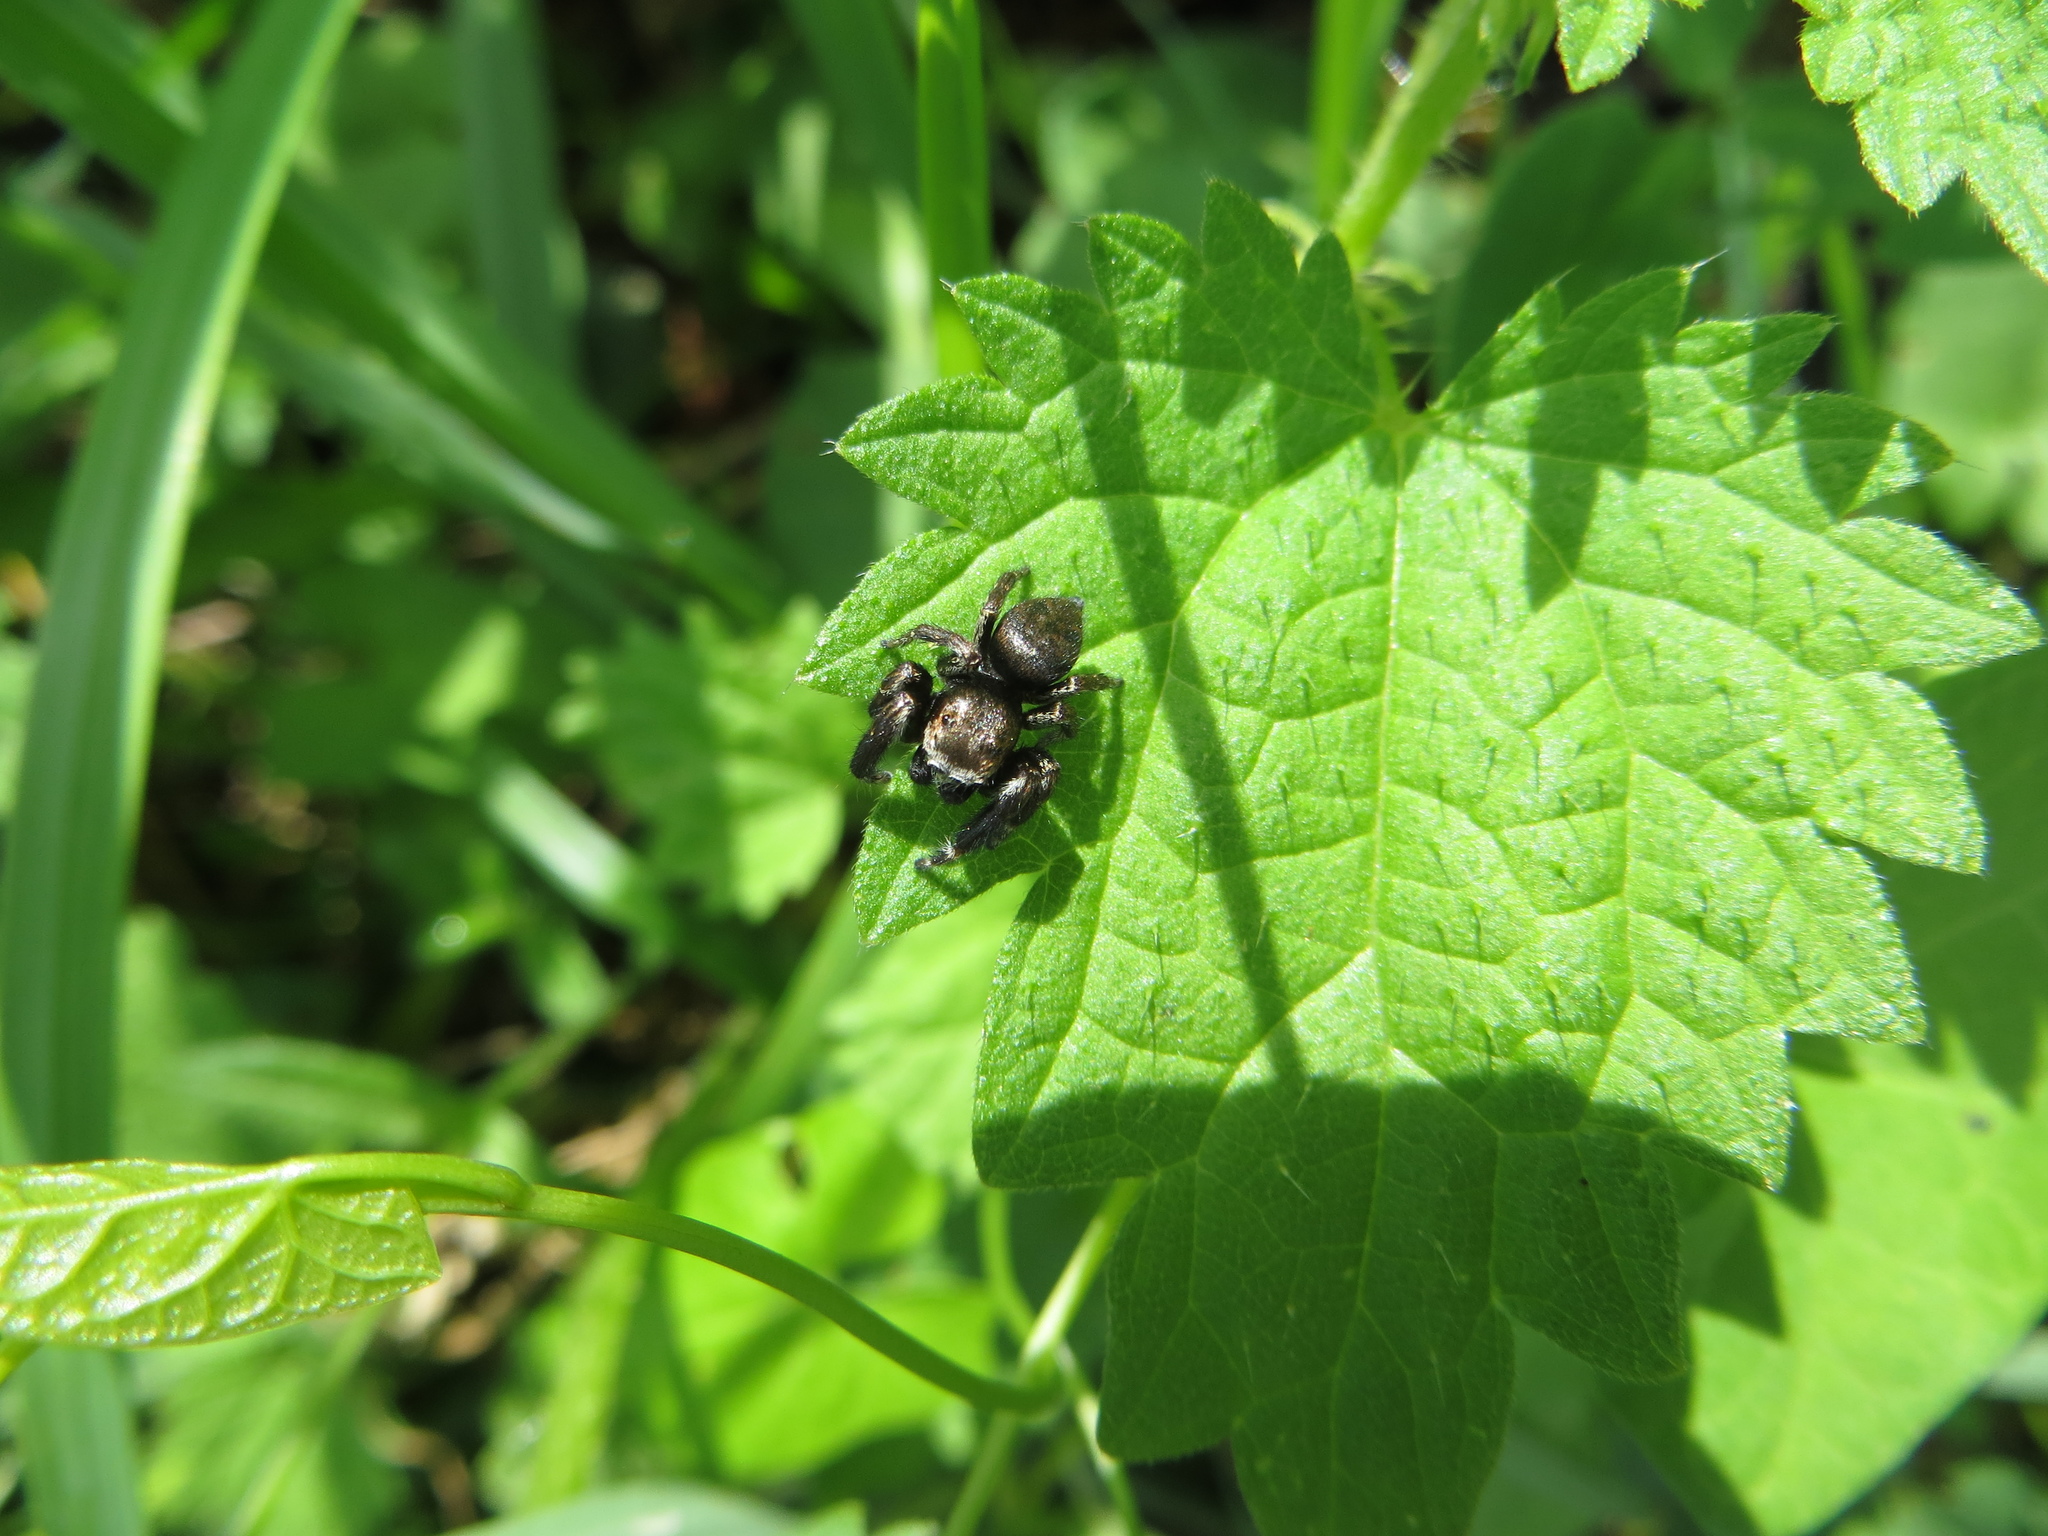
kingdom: Animalia
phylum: Arthropoda
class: Arachnida
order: Araneae
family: Salticidae
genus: Evarcha
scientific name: Evarcha arcuata
